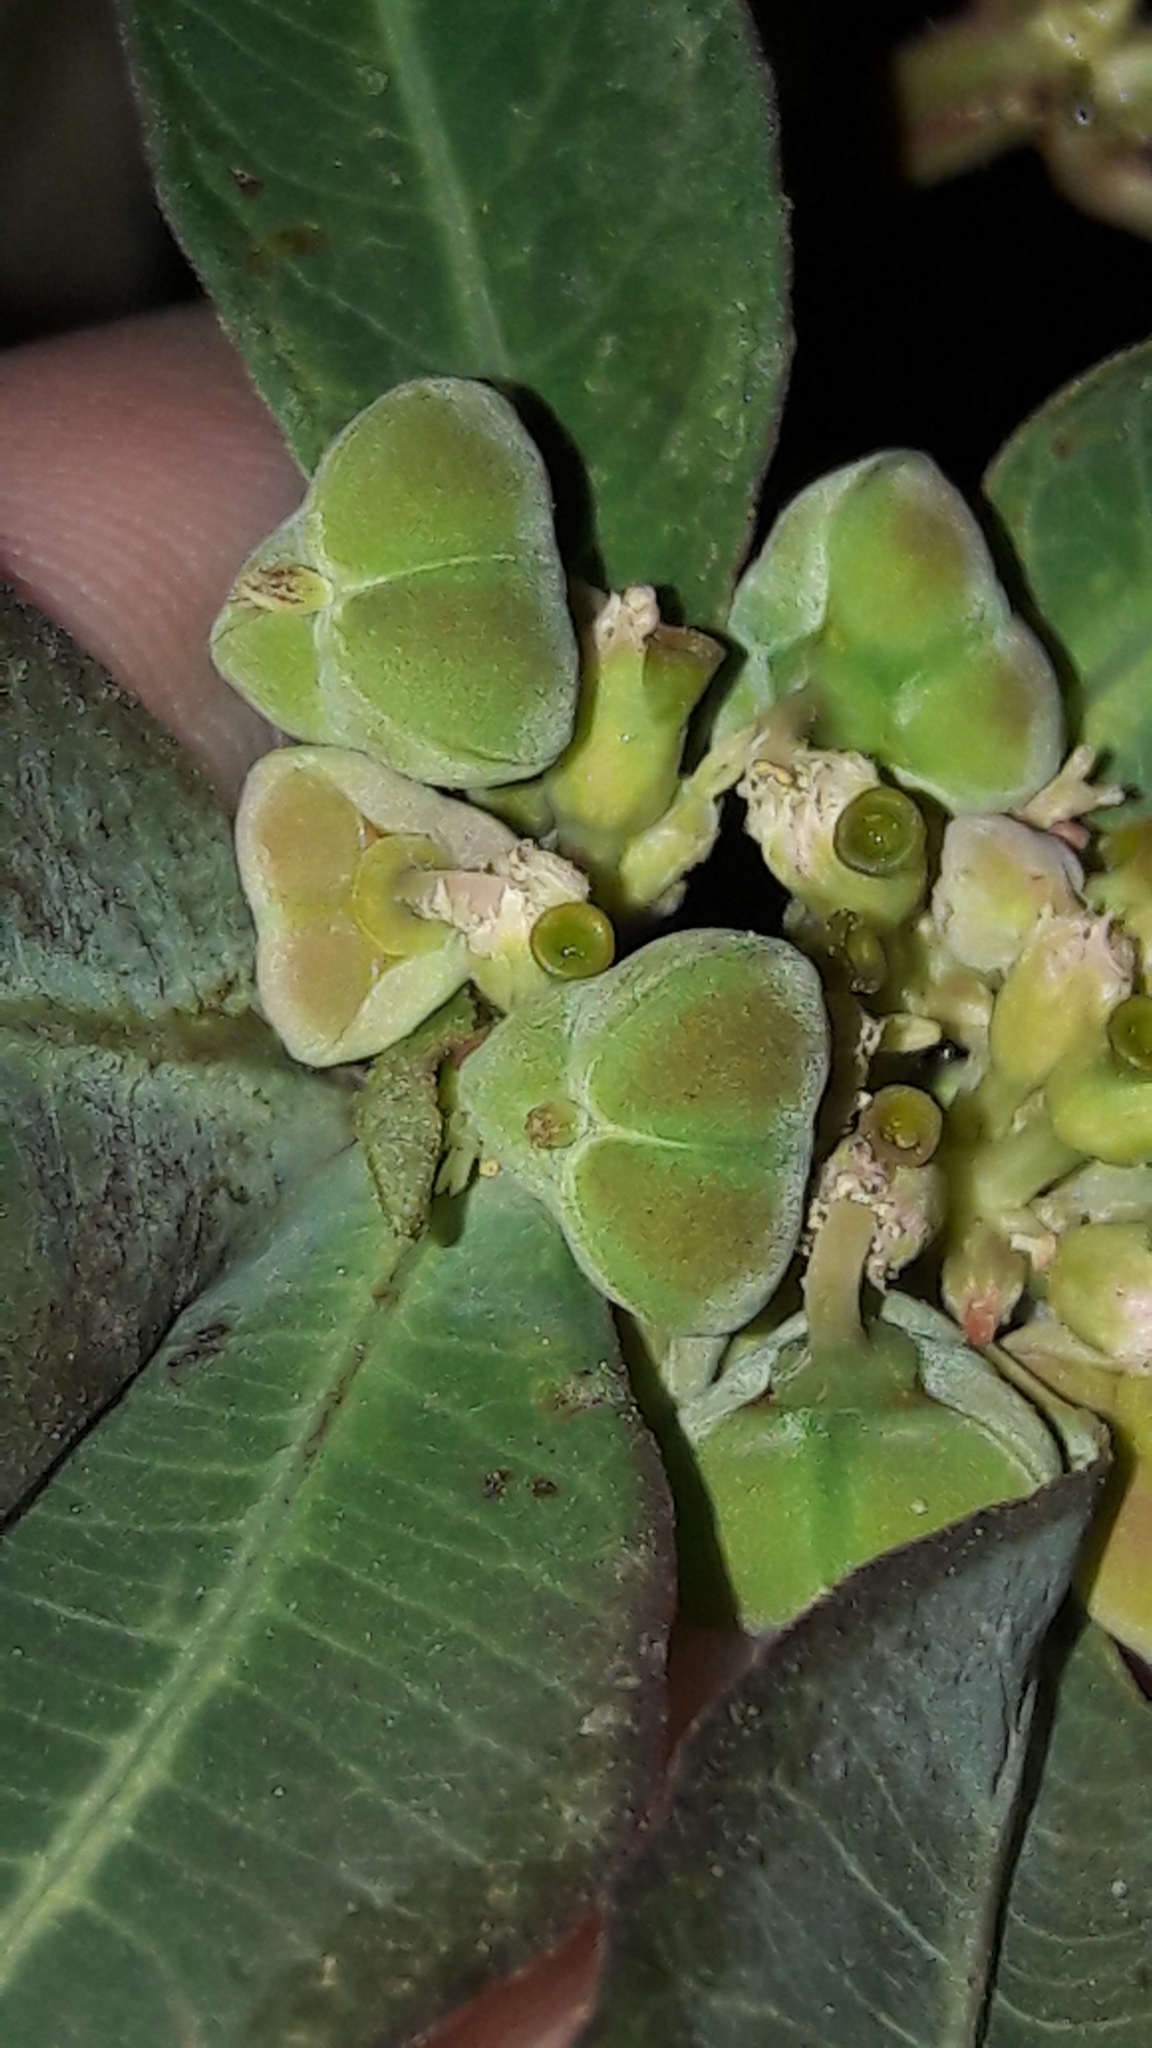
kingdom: Plantae
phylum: Tracheophyta
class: Magnoliopsida
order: Malpighiales
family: Euphorbiaceae
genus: Euphorbia
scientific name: Euphorbia heterophylla
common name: Mexican fireplant
